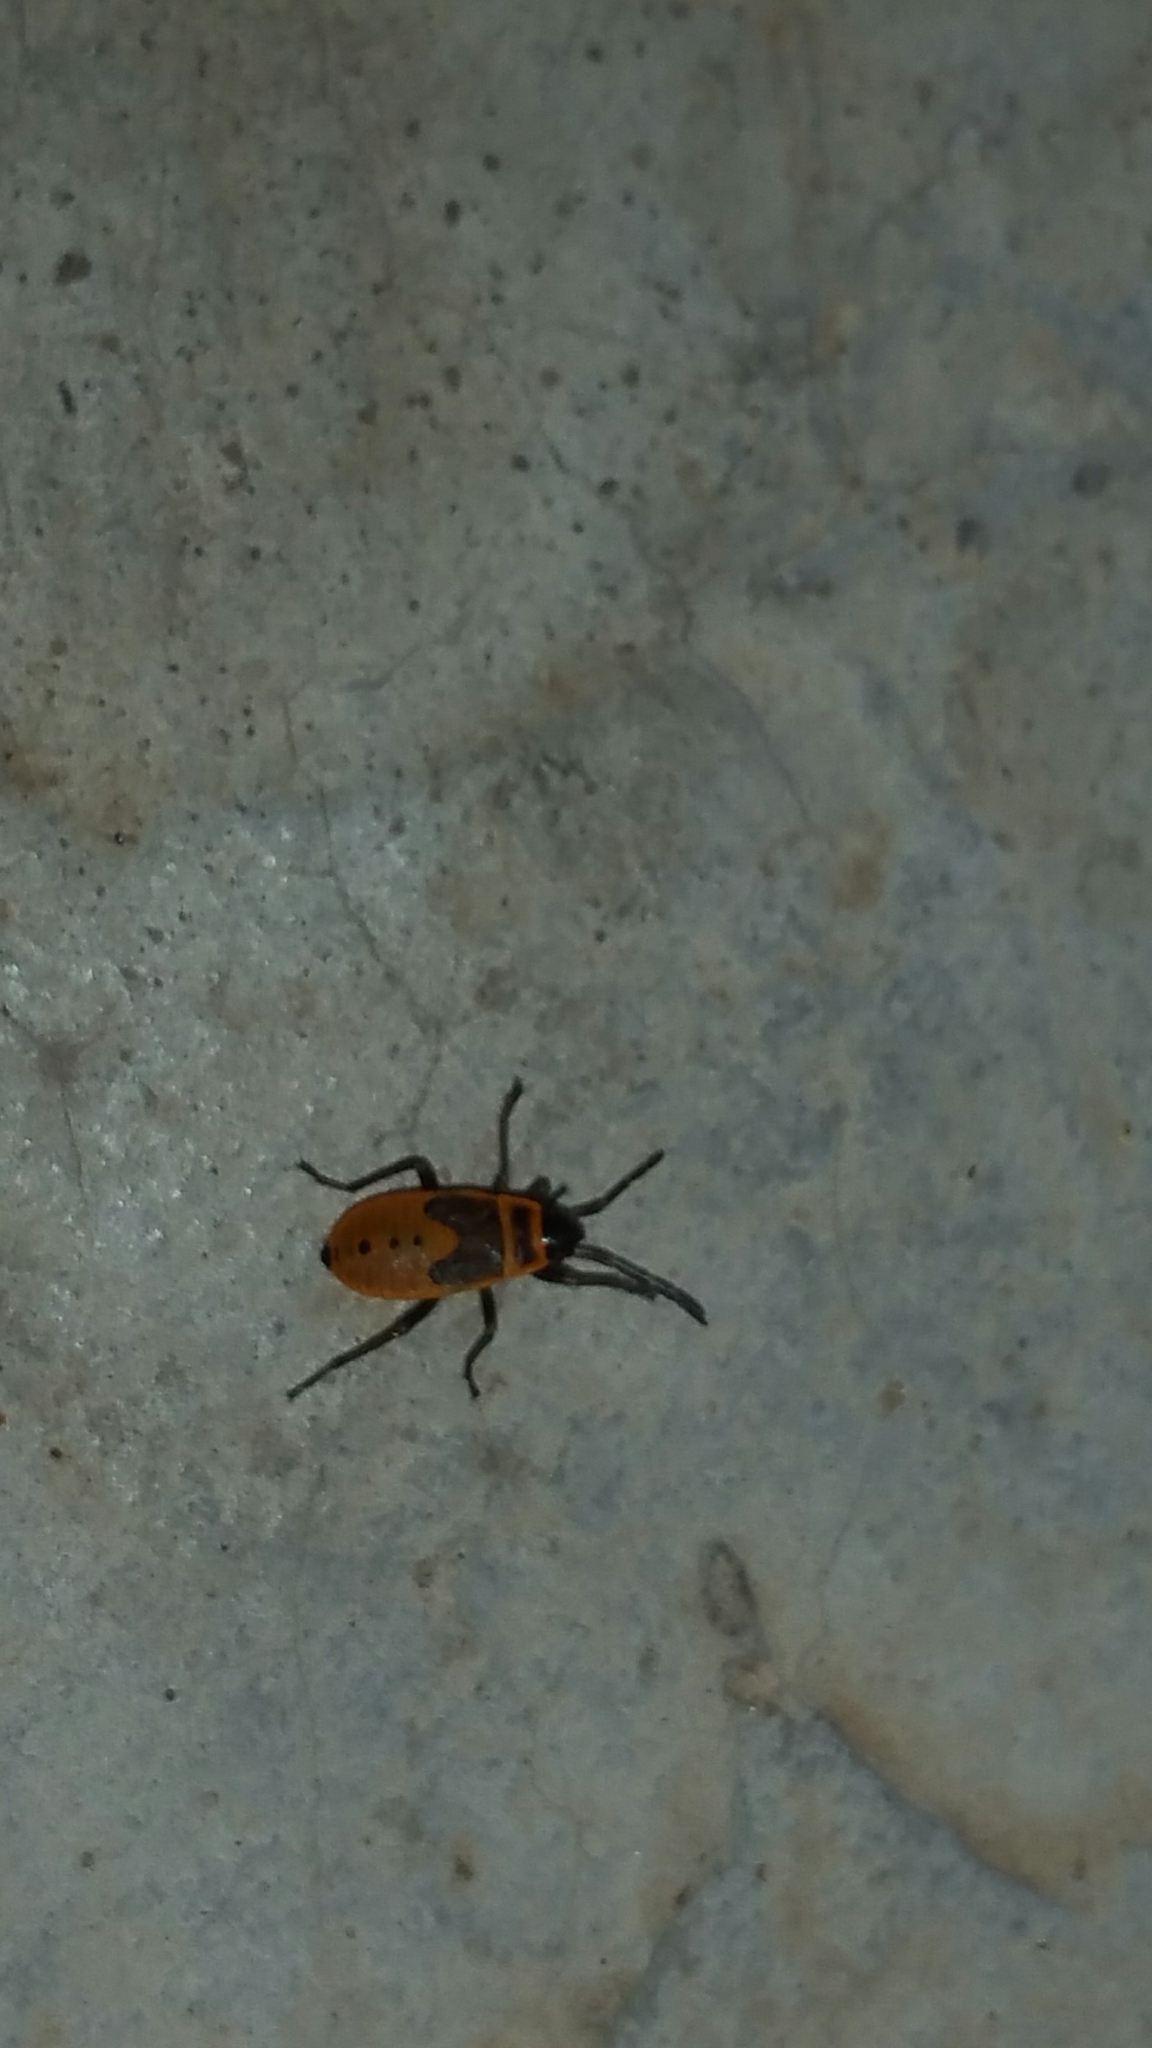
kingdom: Animalia
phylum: Arthropoda
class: Insecta
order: Hemiptera
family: Pyrrhocoridae
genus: Scantius
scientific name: Scantius aegyptius
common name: Red bug
